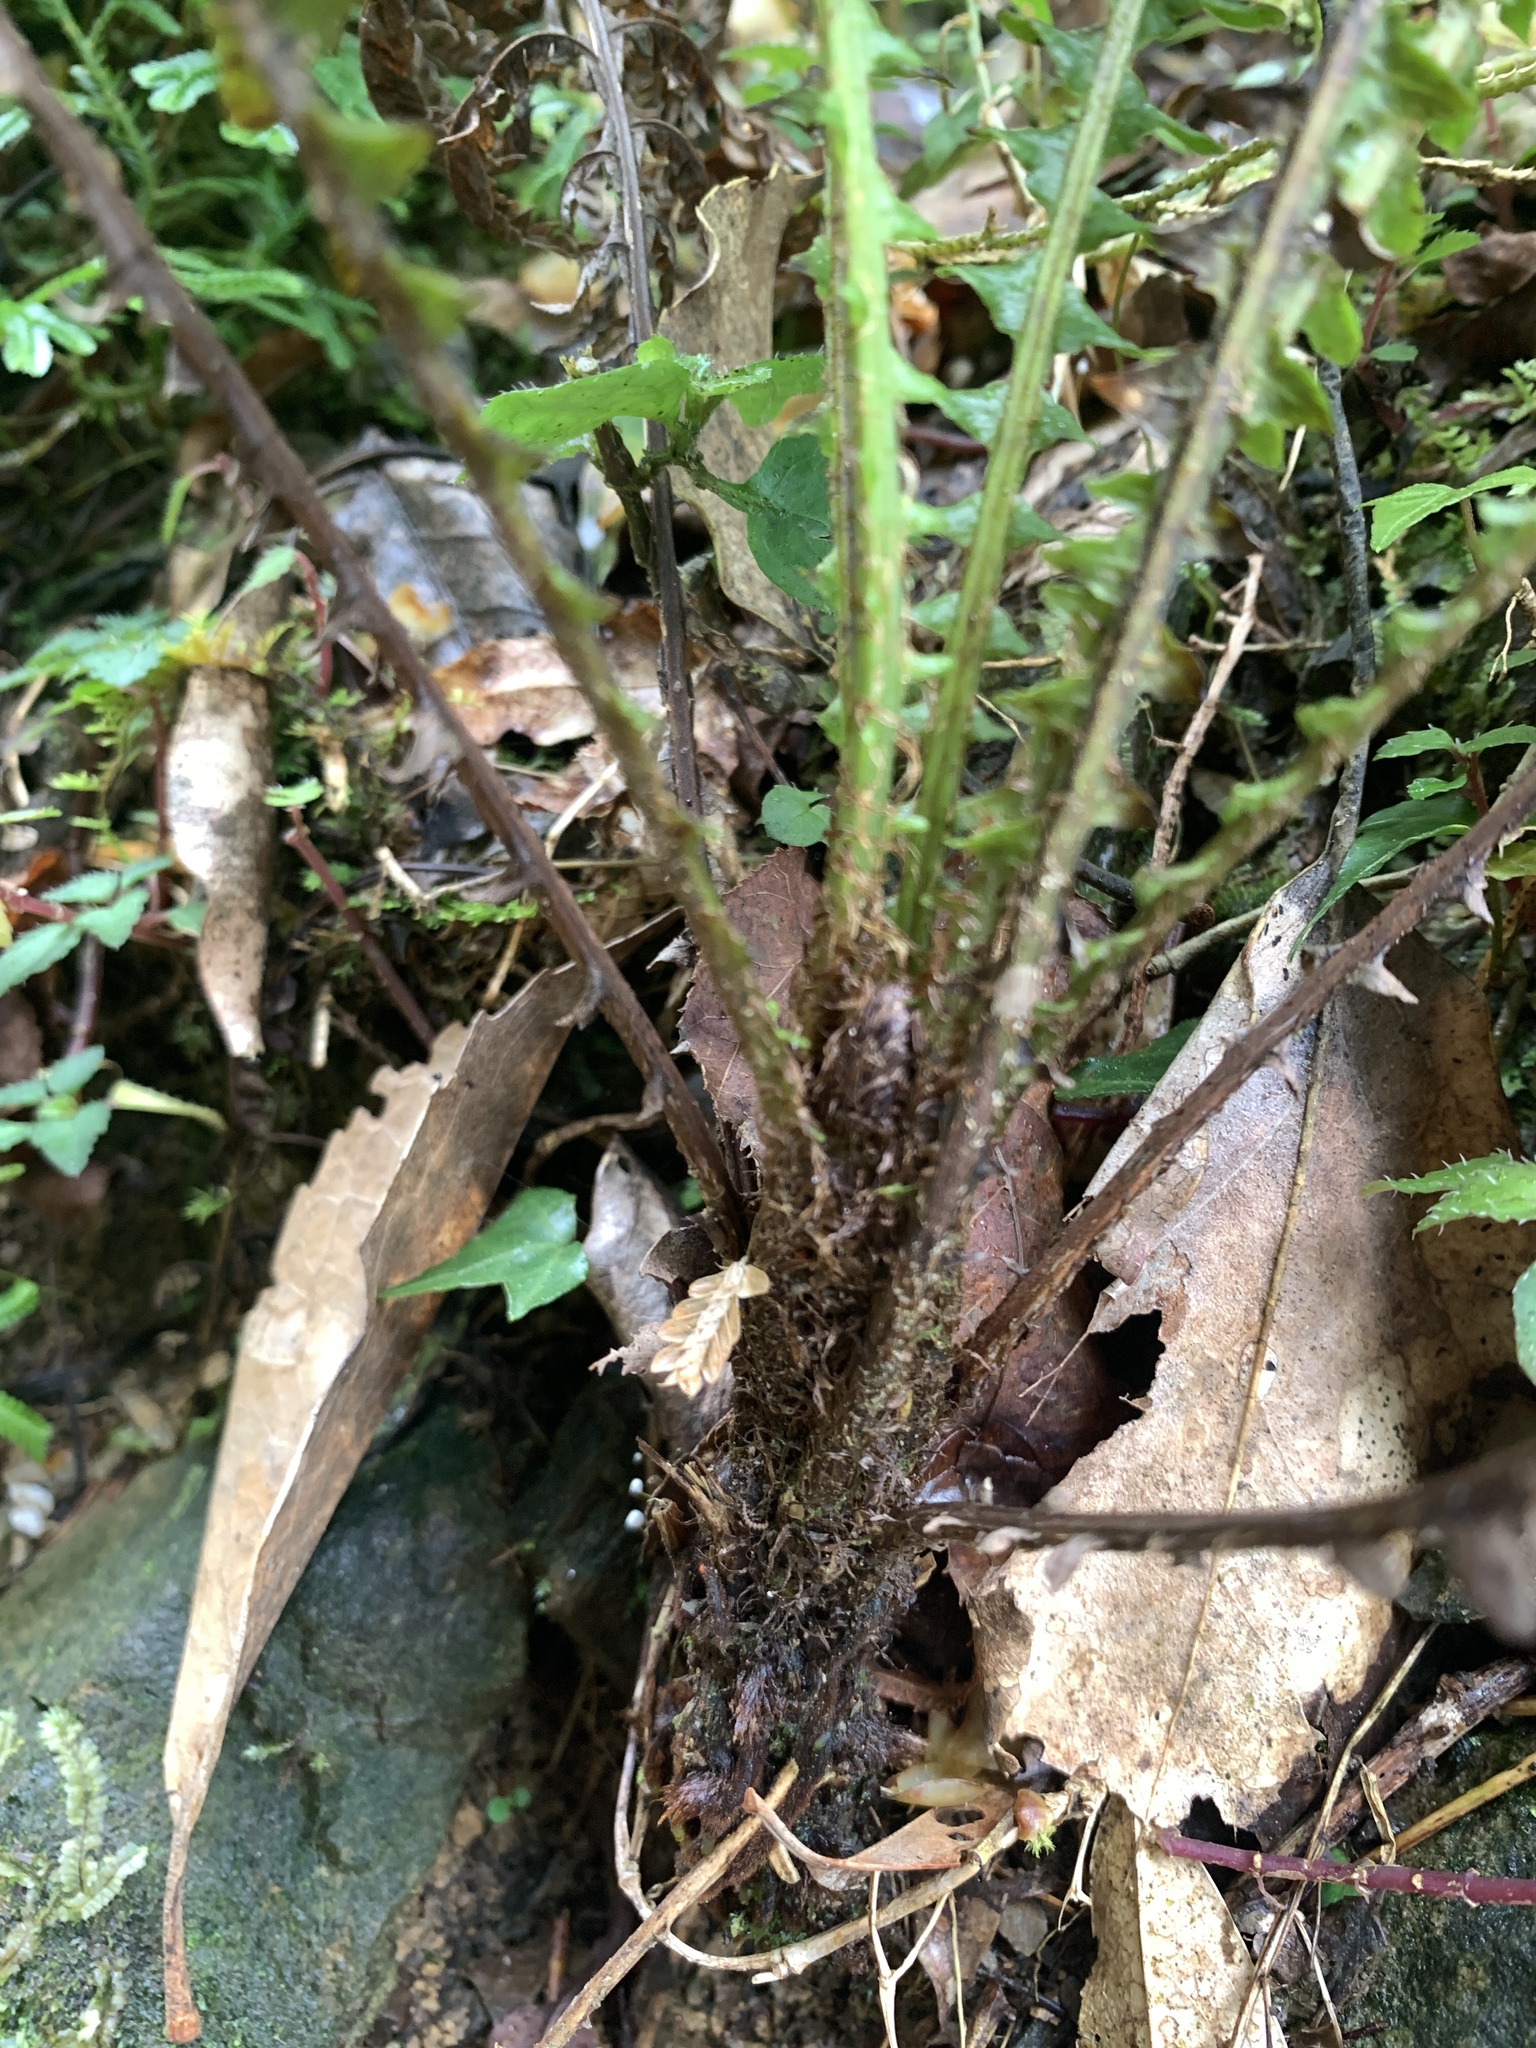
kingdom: Plantae
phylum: Tracheophyta
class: Polypodiopsida
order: Polypodiales
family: Blechnaceae
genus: Diploblechnum
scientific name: Diploblechnum fraseri
